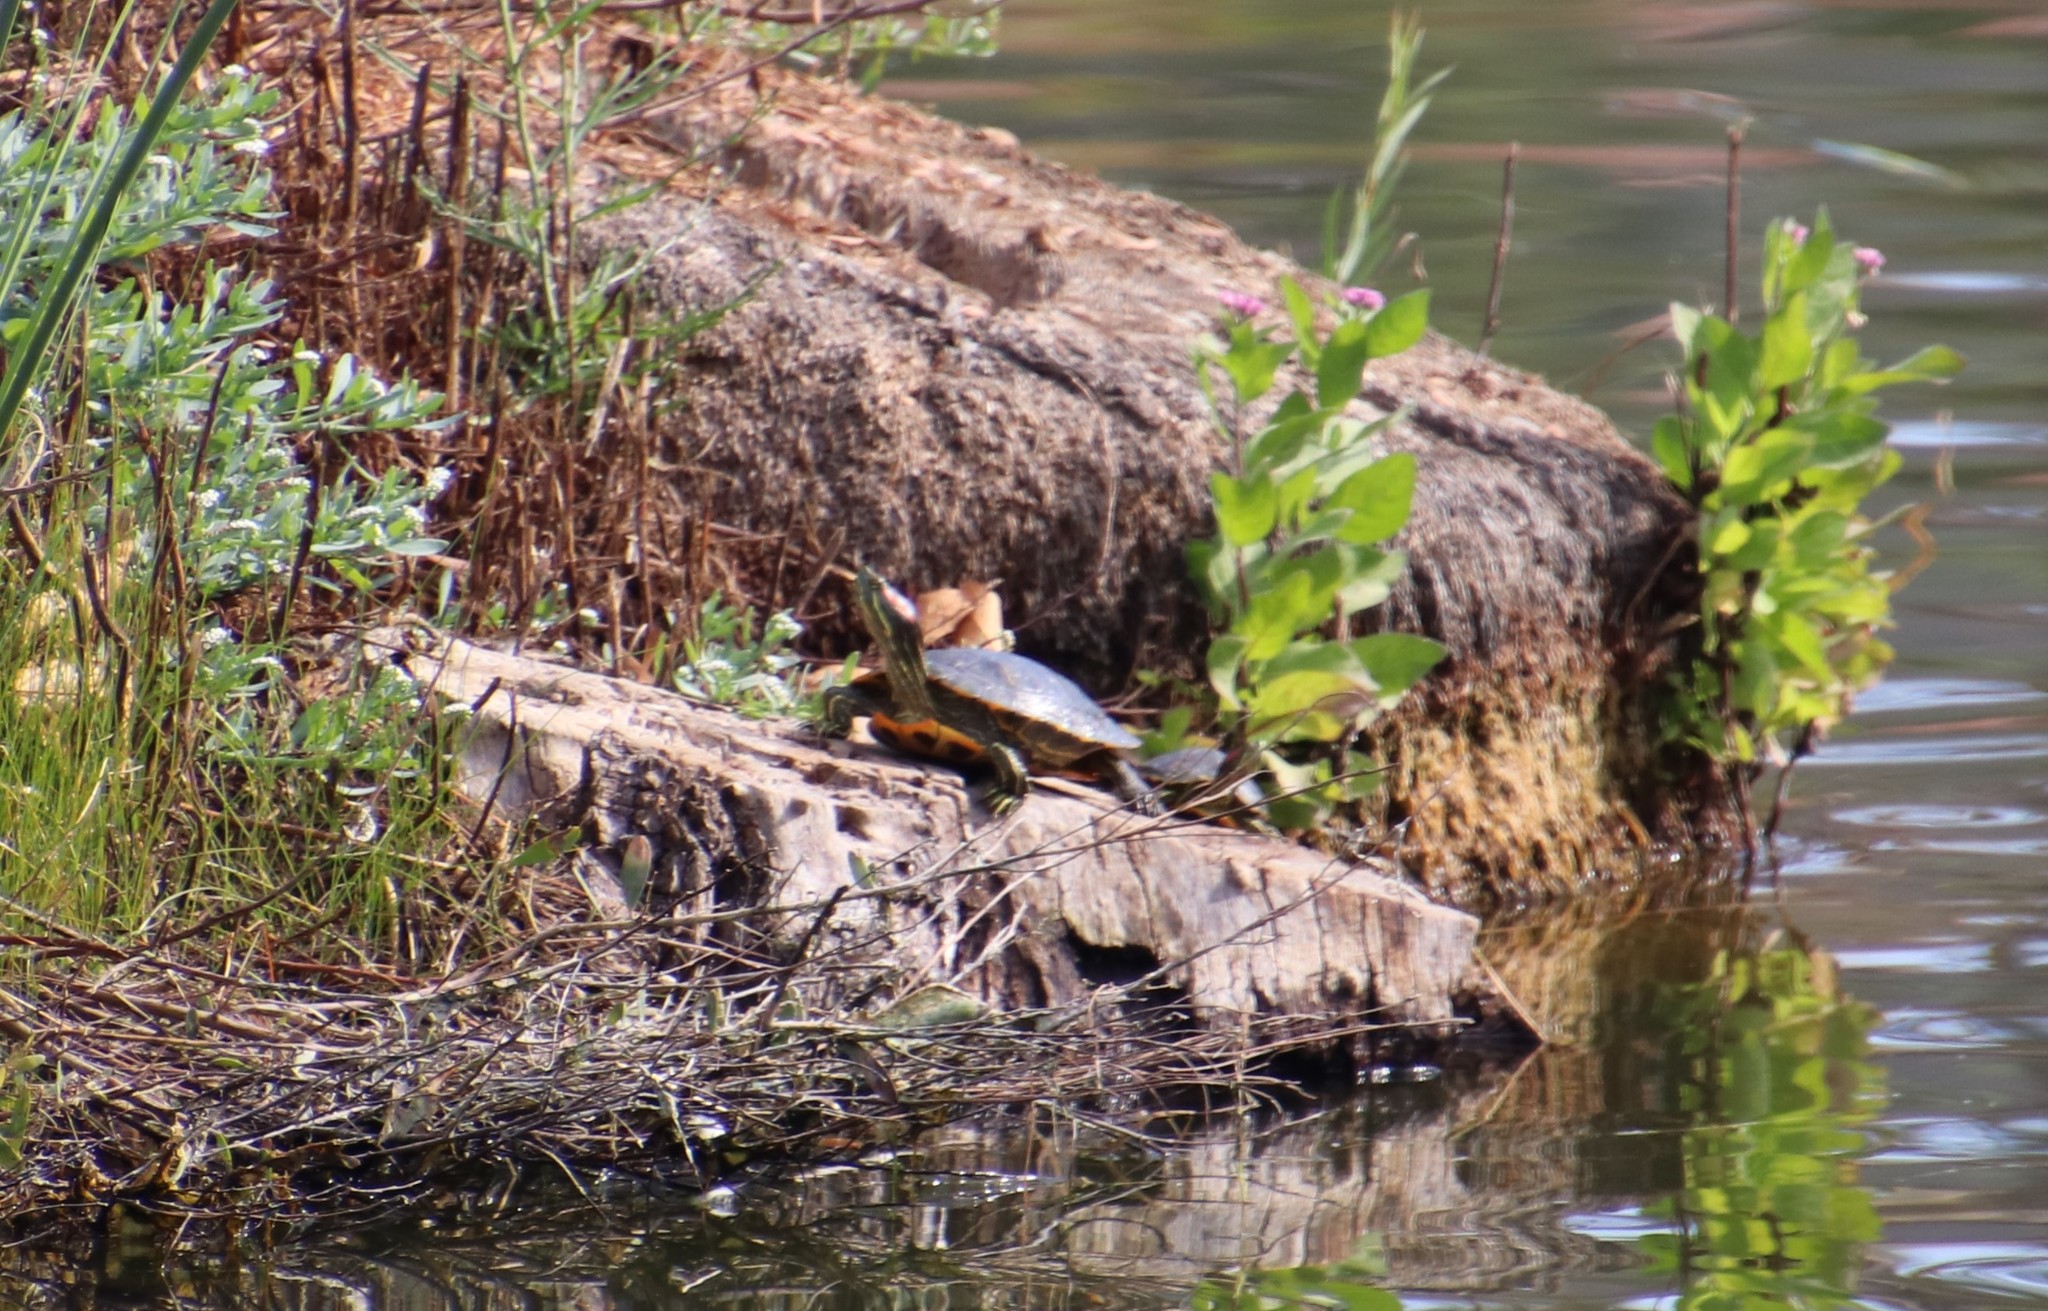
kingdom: Animalia
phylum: Chordata
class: Testudines
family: Emydidae
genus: Trachemys
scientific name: Trachemys scripta
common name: Slider
